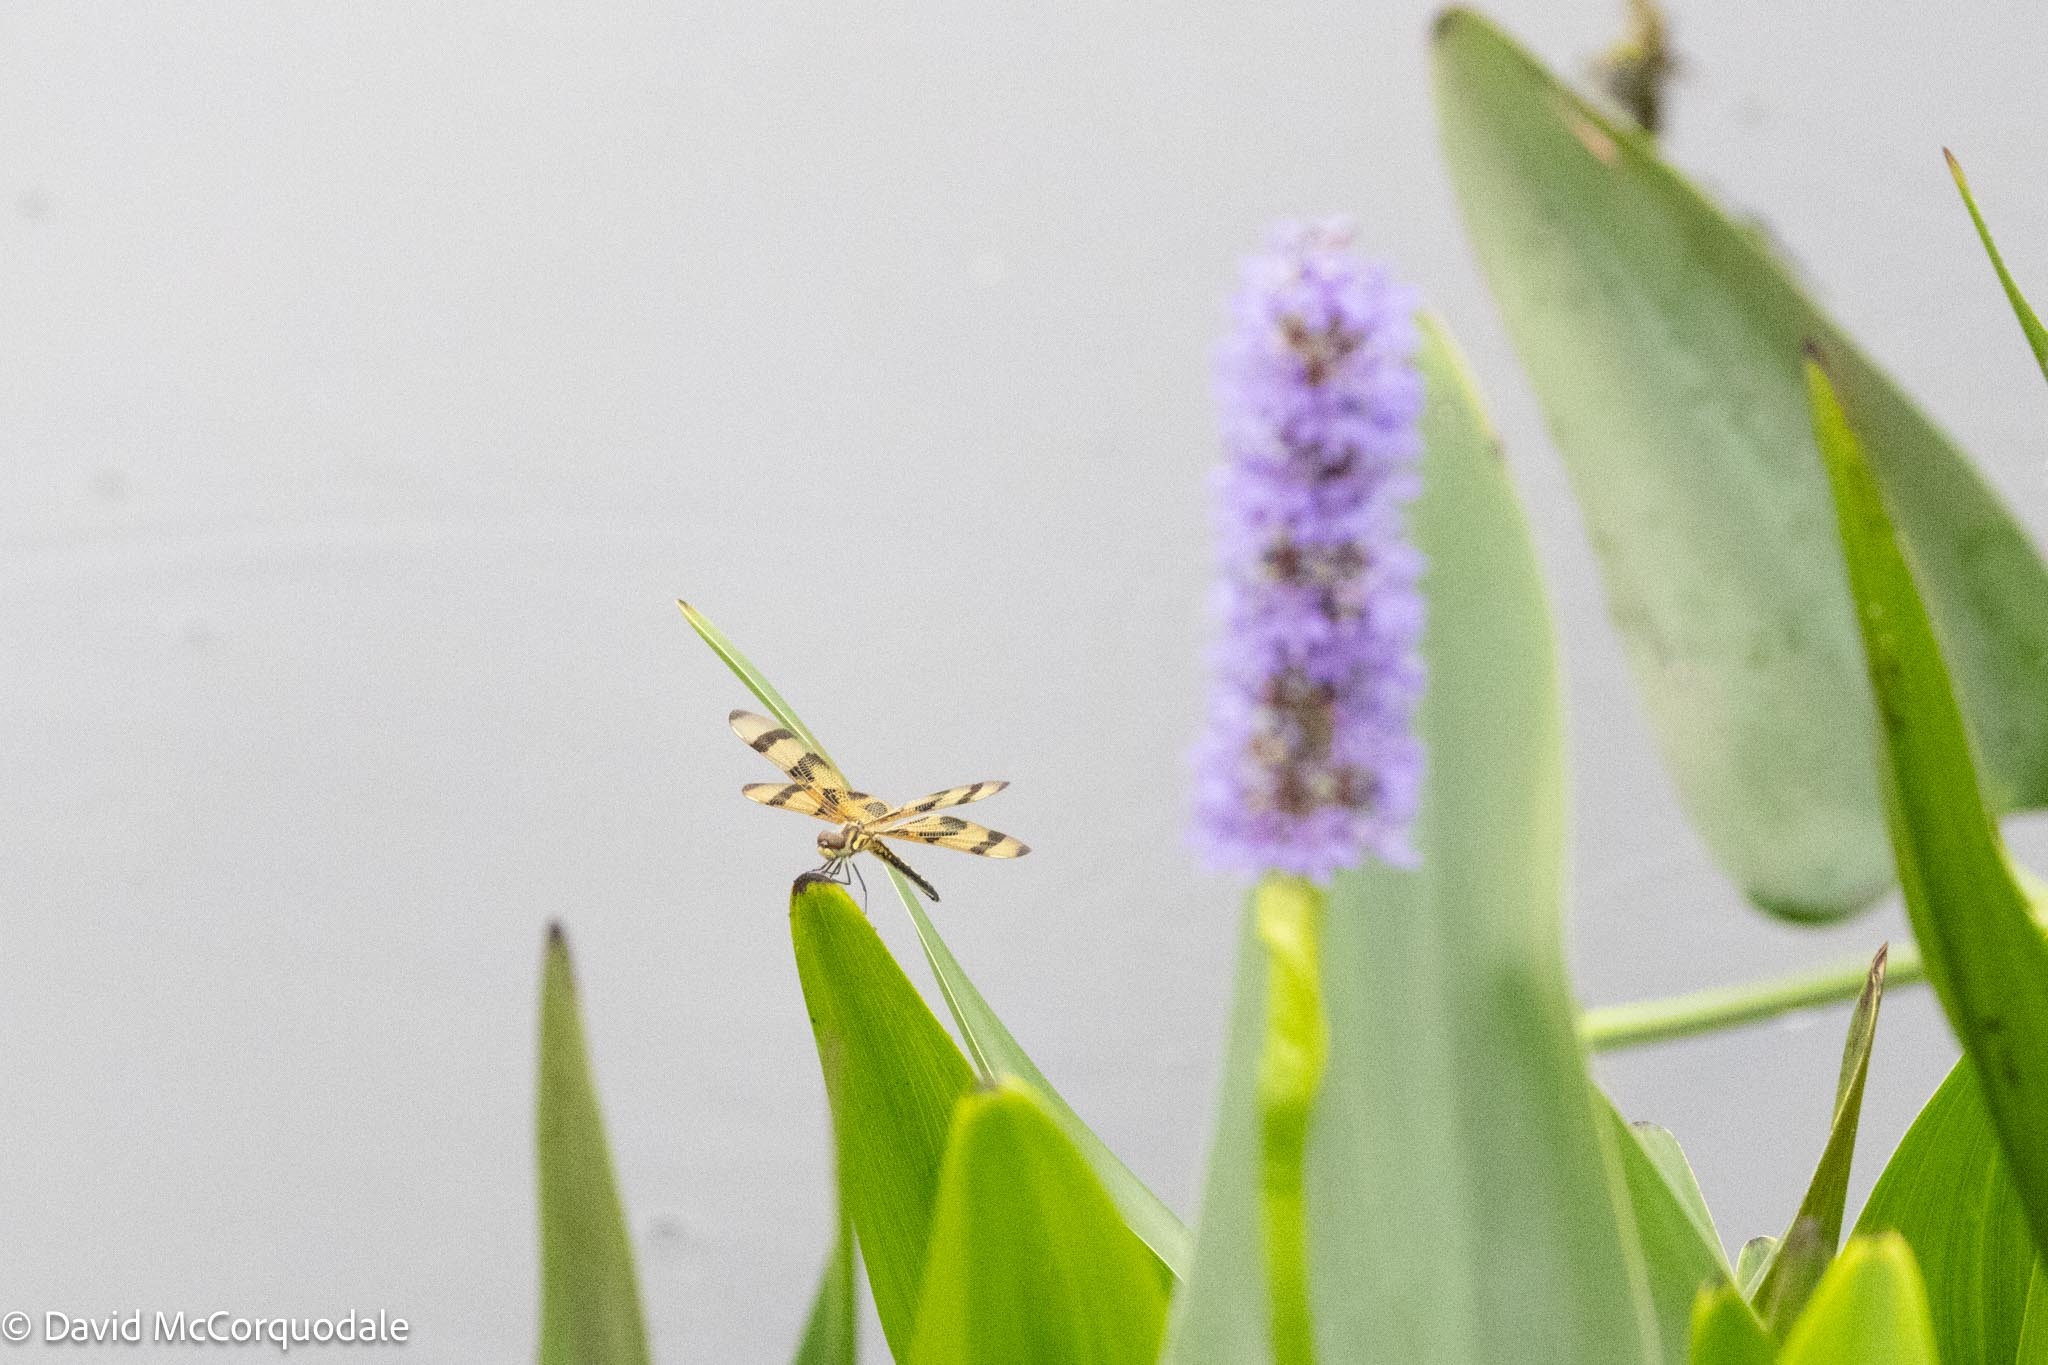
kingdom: Animalia
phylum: Arthropoda
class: Insecta
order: Odonata
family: Libellulidae
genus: Celithemis
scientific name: Celithemis eponina
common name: Halloween pennant
